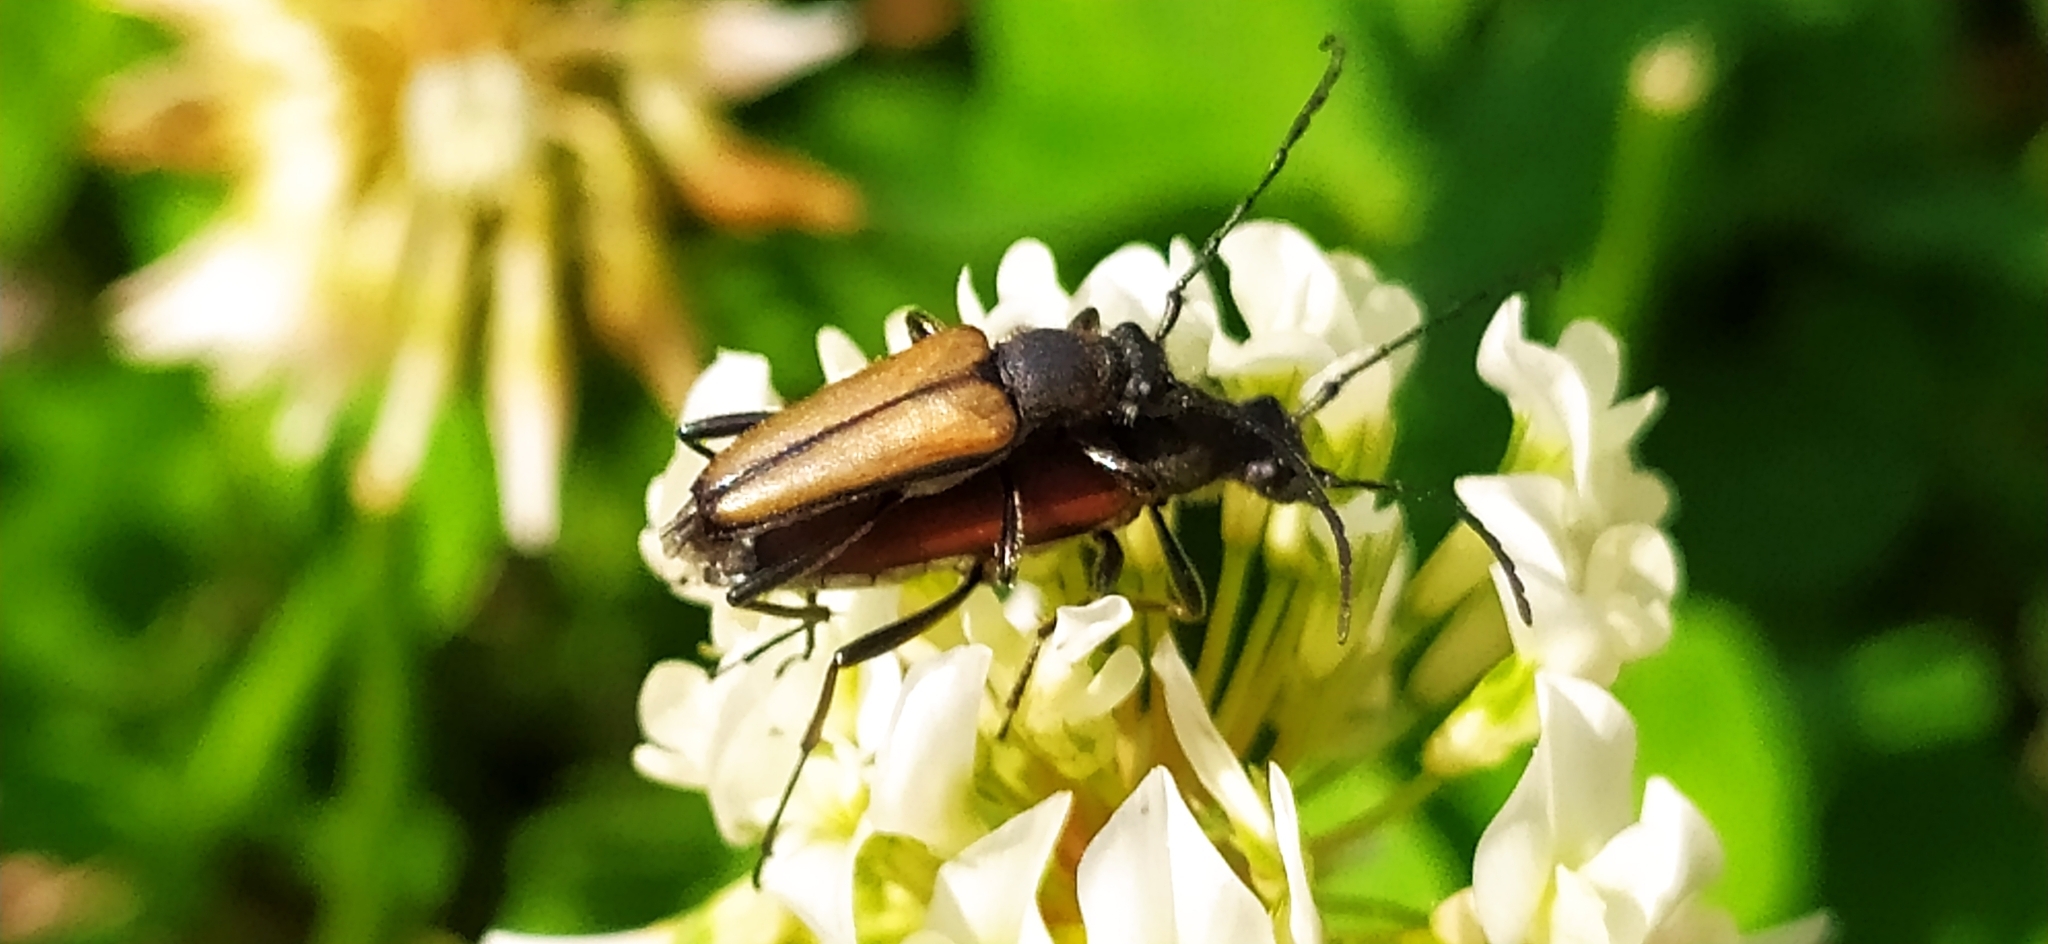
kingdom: Animalia
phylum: Arthropoda
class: Insecta
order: Coleoptera
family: Cerambycidae
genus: Anastrangalia
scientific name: Anastrangalia reyi
